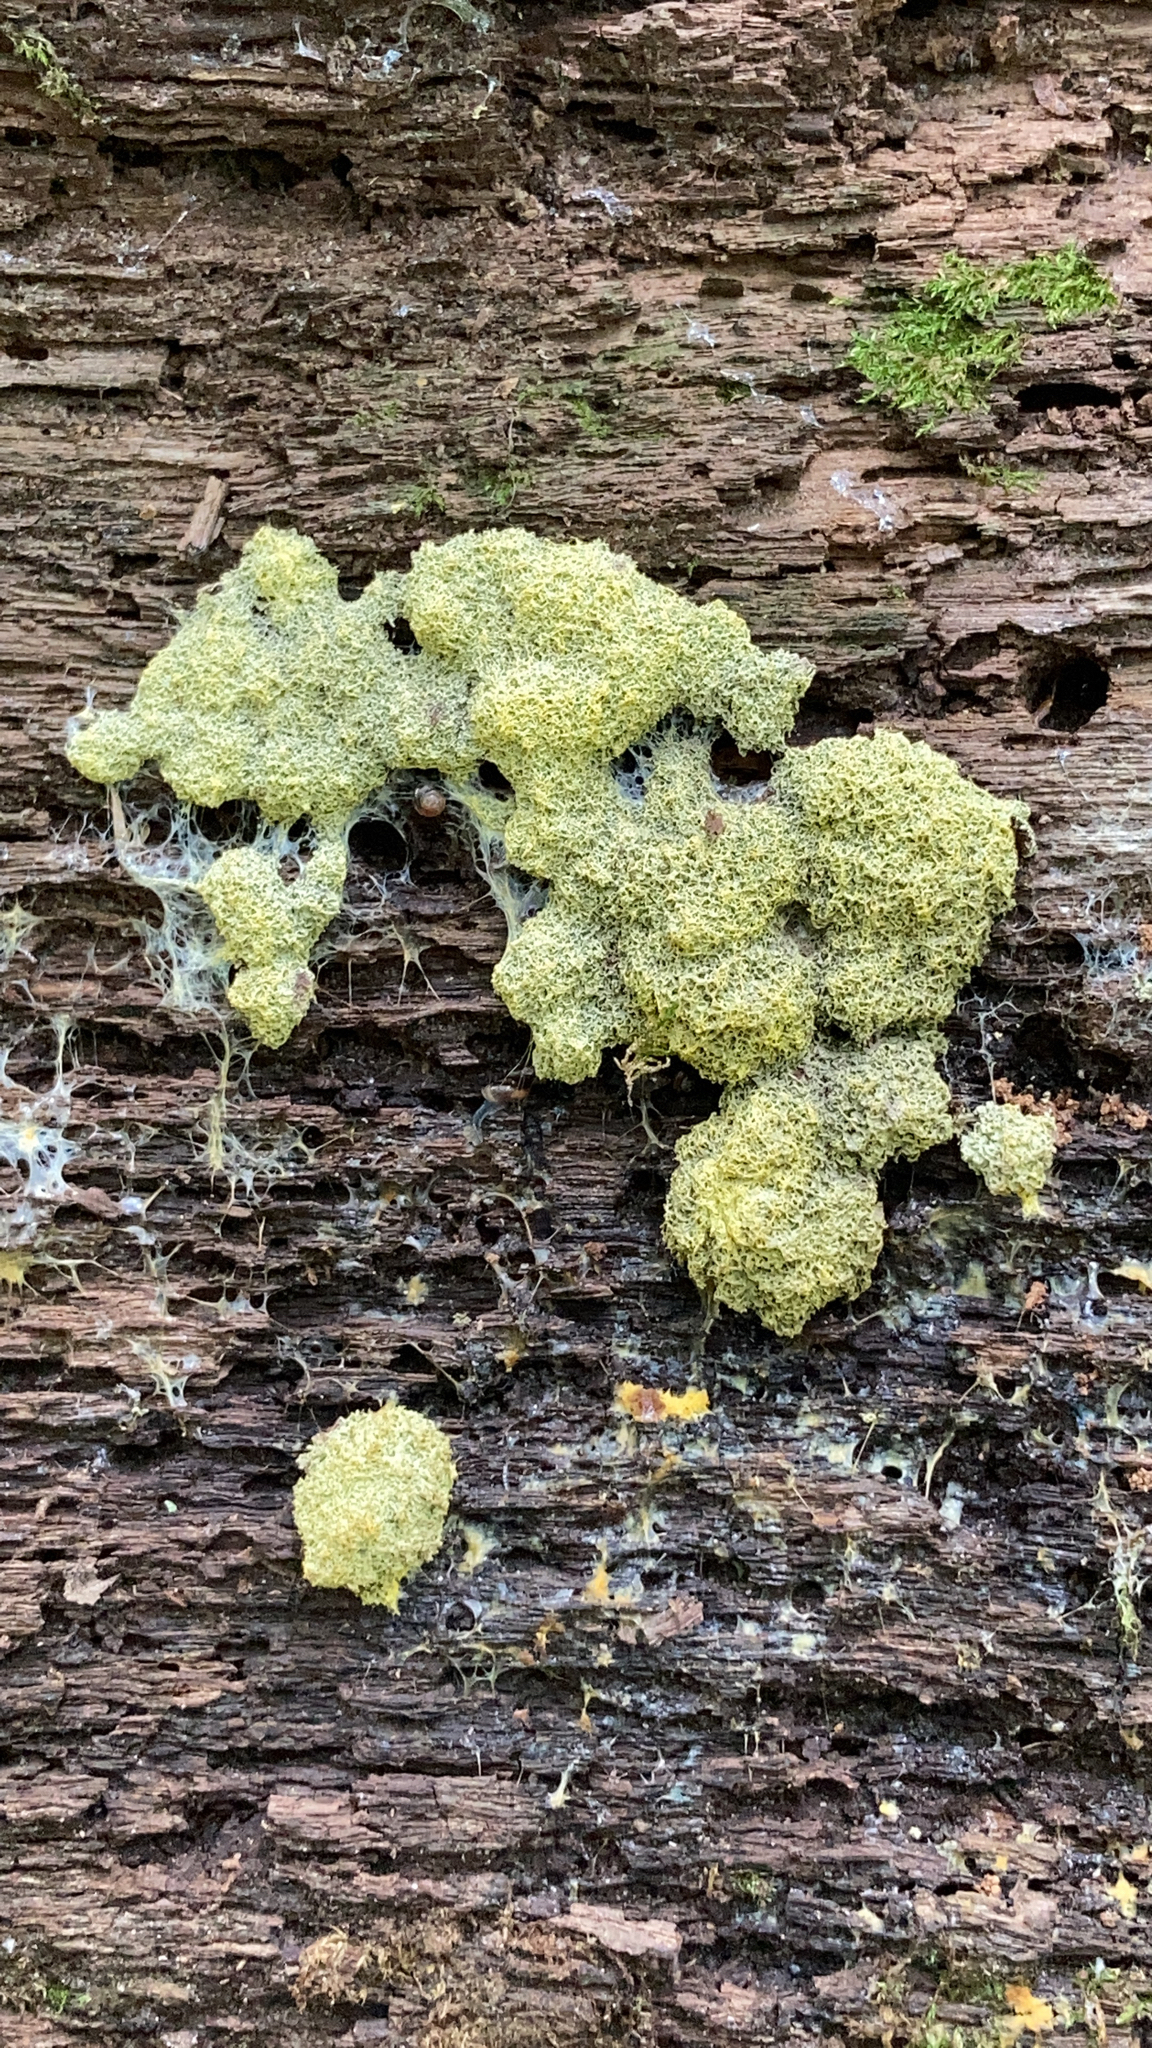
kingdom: Protozoa
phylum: Mycetozoa
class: Myxomycetes
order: Physarales
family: Physaraceae
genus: Fuligo
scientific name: Fuligo septica
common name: Dog vomit slime mold
